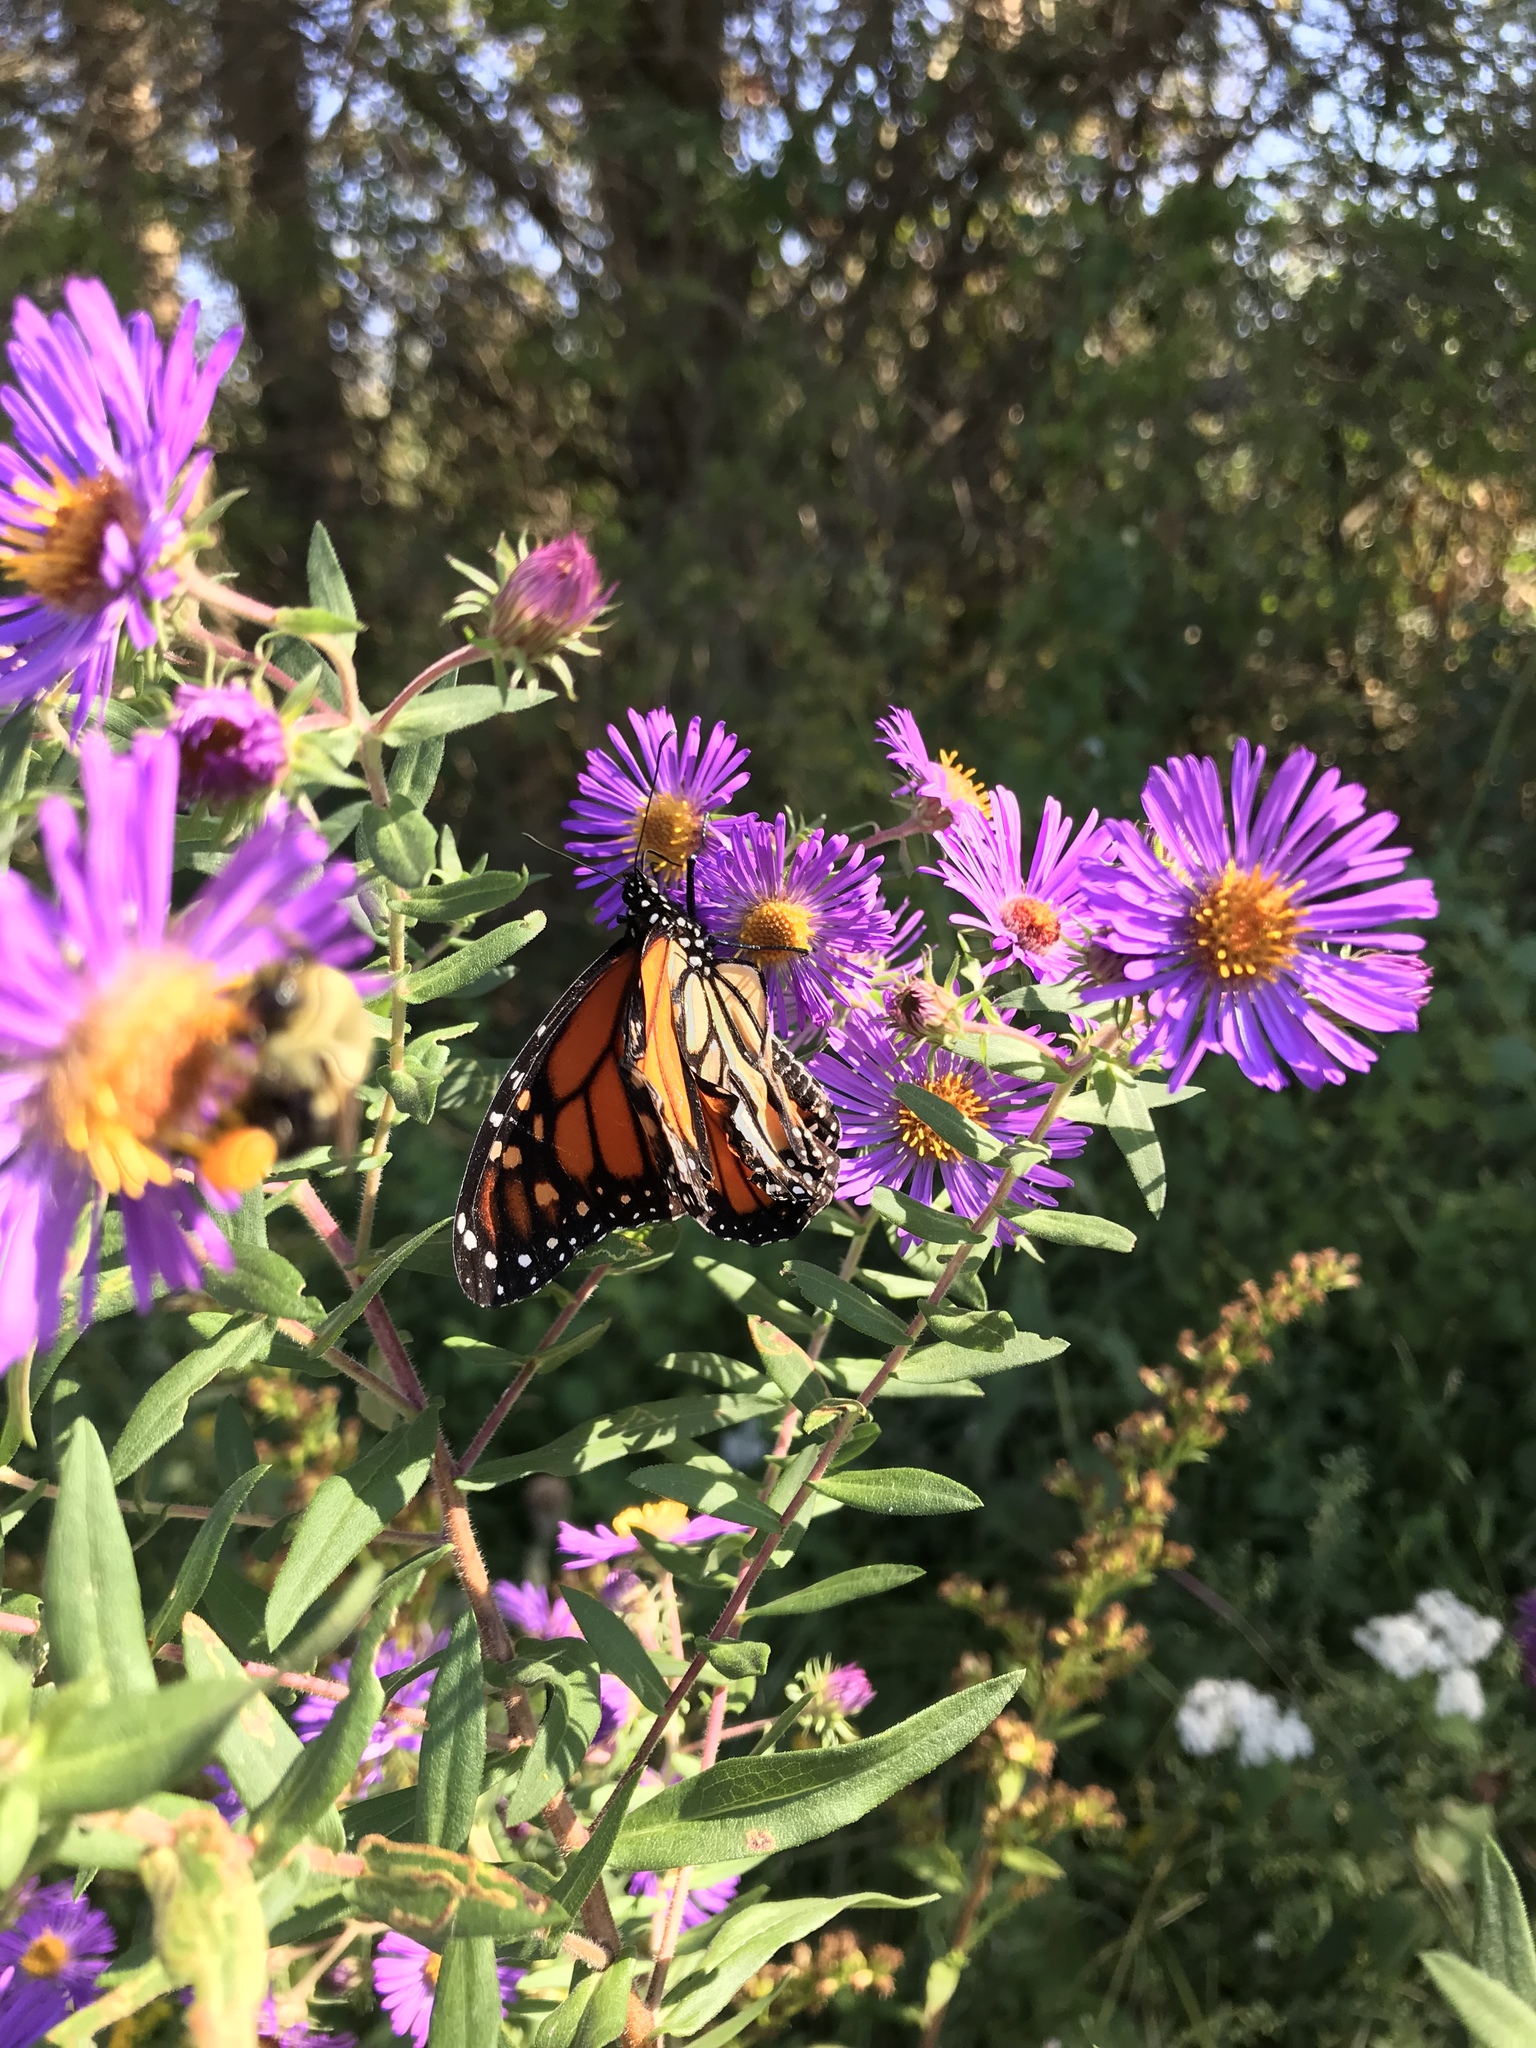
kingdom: Animalia
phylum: Arthropoda
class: Insecta
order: Lepidoptera
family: Nymphalidae
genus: Danaus
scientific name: Danaus plexippus
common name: Monarch
